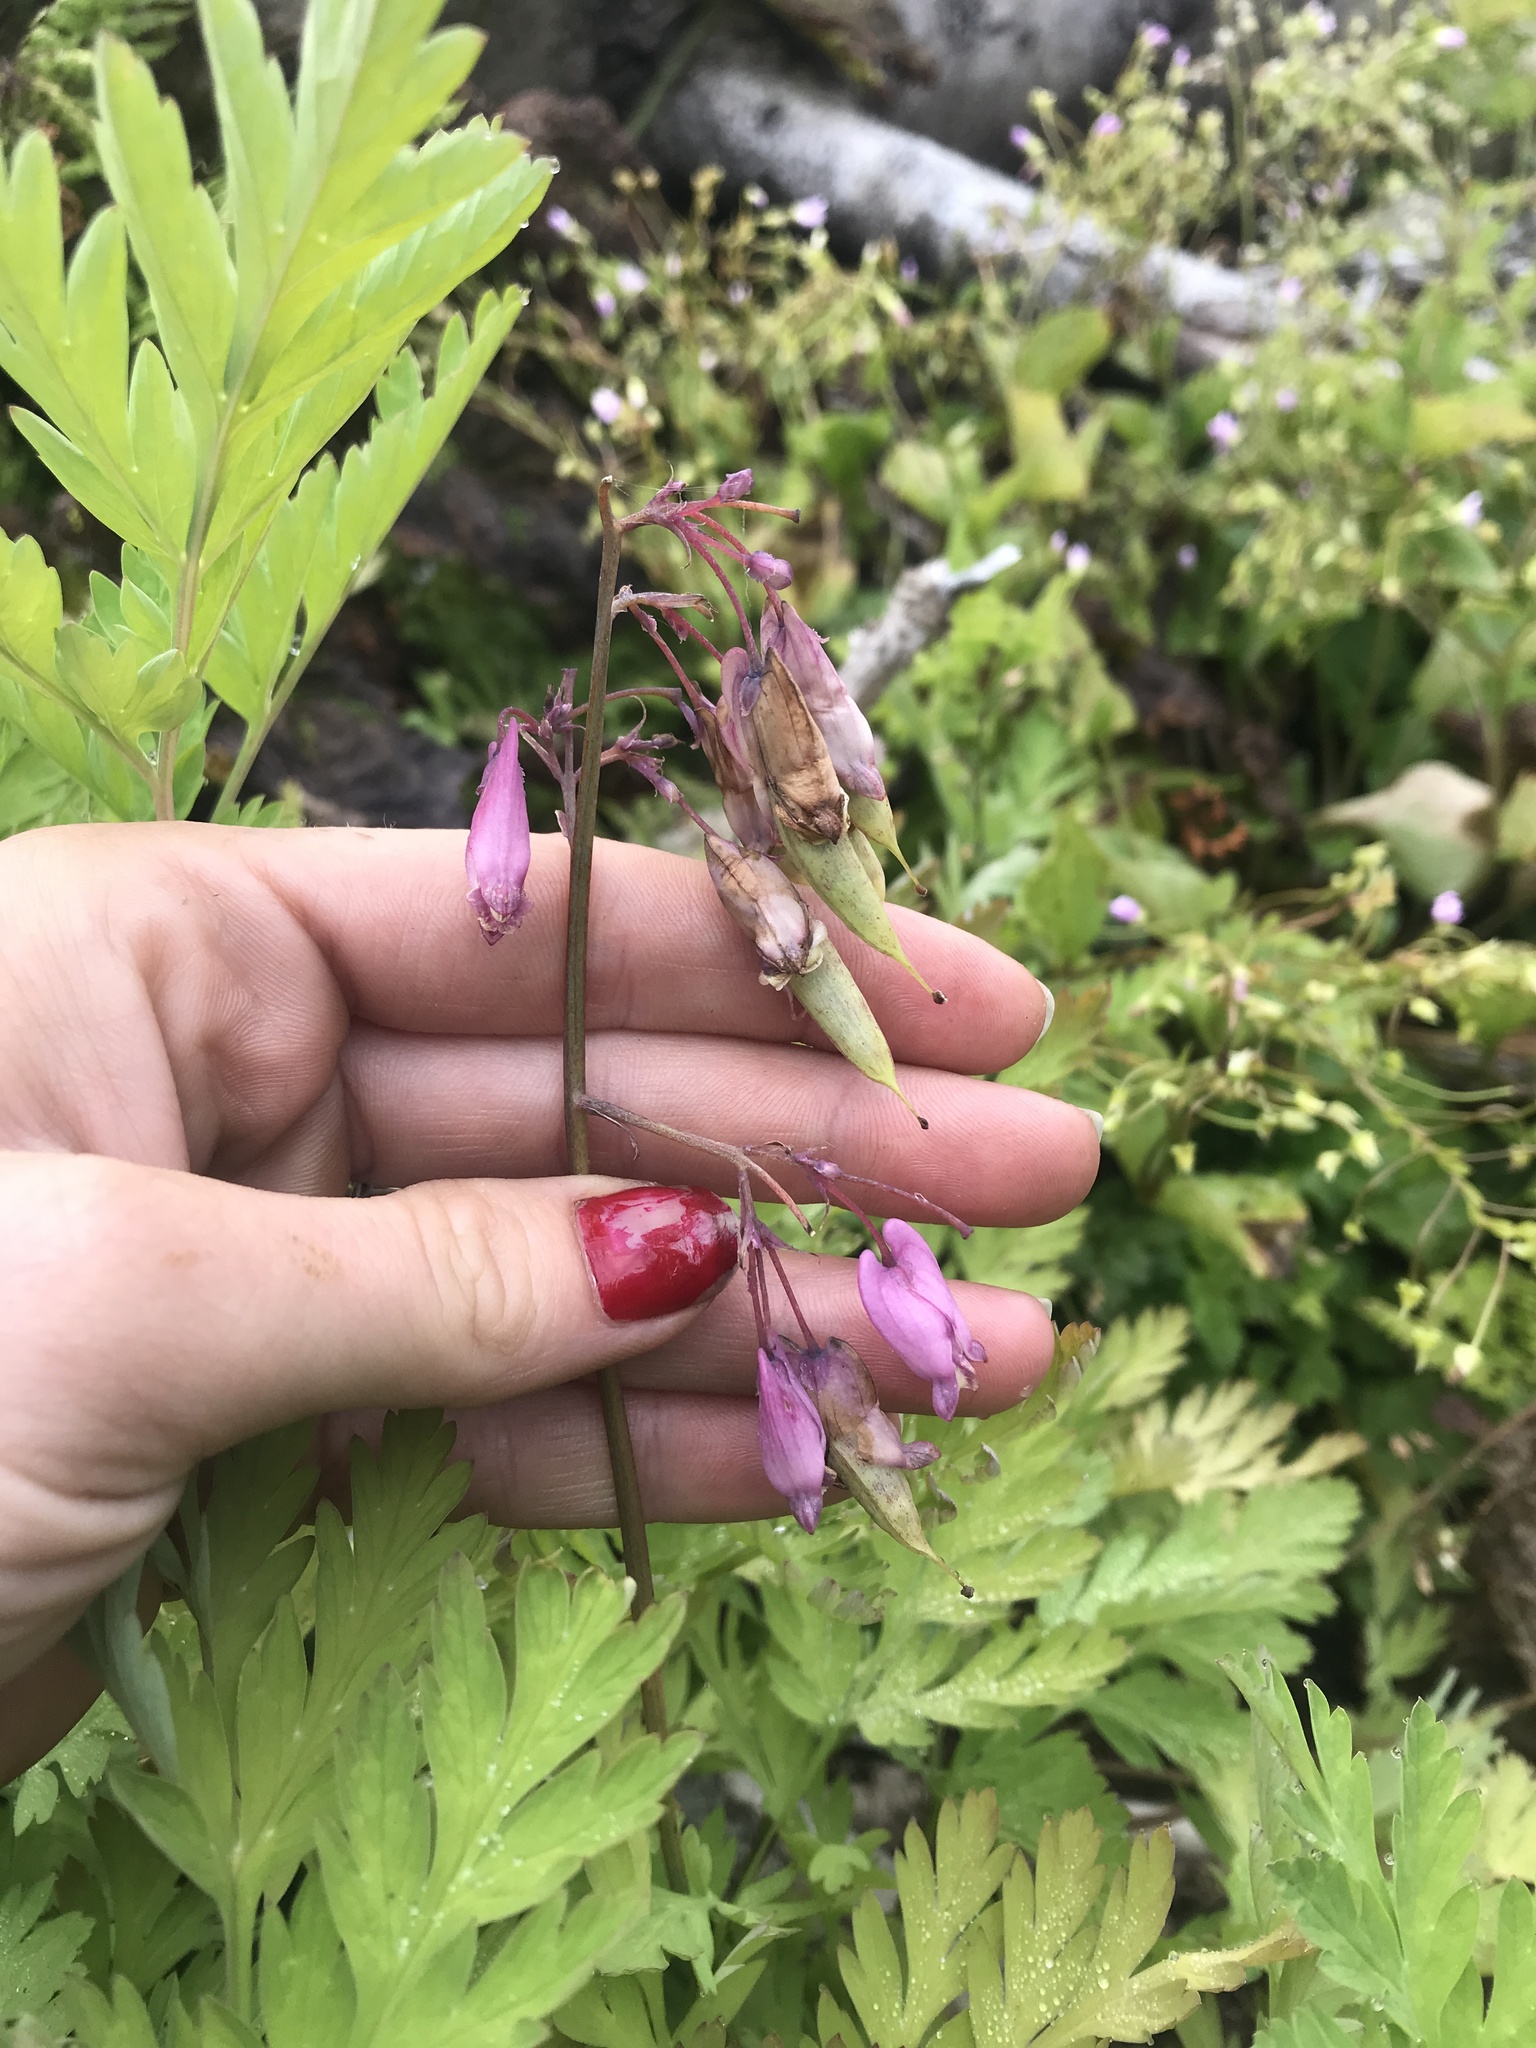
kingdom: Plantae
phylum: Tracheophyta
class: Magnoliopsida
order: Ranunculales
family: Papaveraceae
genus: Dicentra
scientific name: Dicentra formosa
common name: Bleeding-heart
